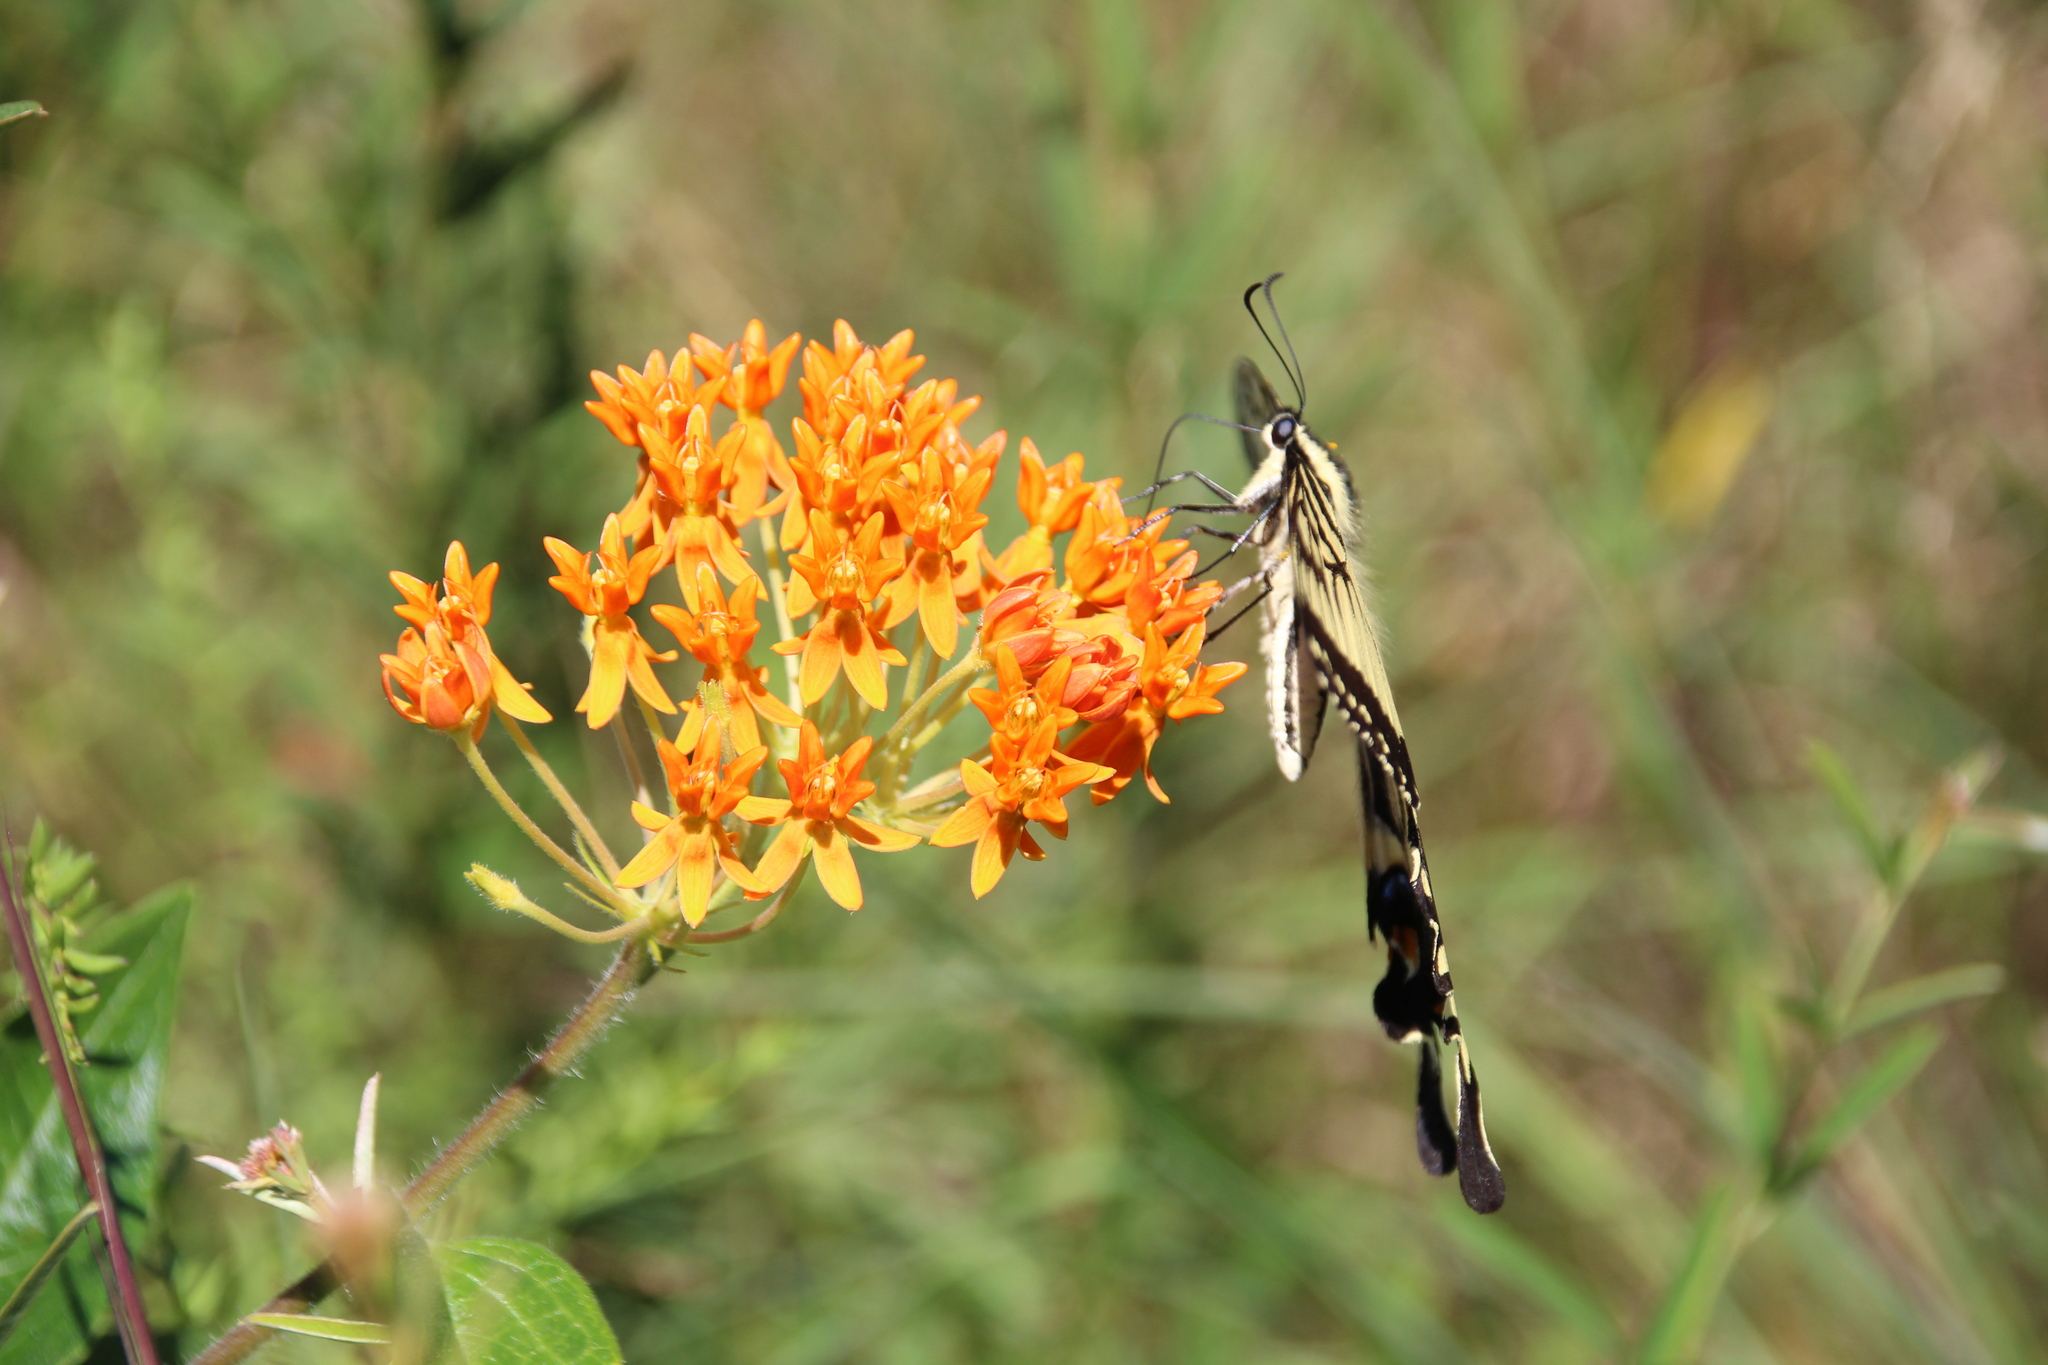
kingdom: Animalia
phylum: Arthropoda
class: Insecta
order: Lepidoptera
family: Papilionidae
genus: Papilio
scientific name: Papilio glaucus
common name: Tiger swallowtail
